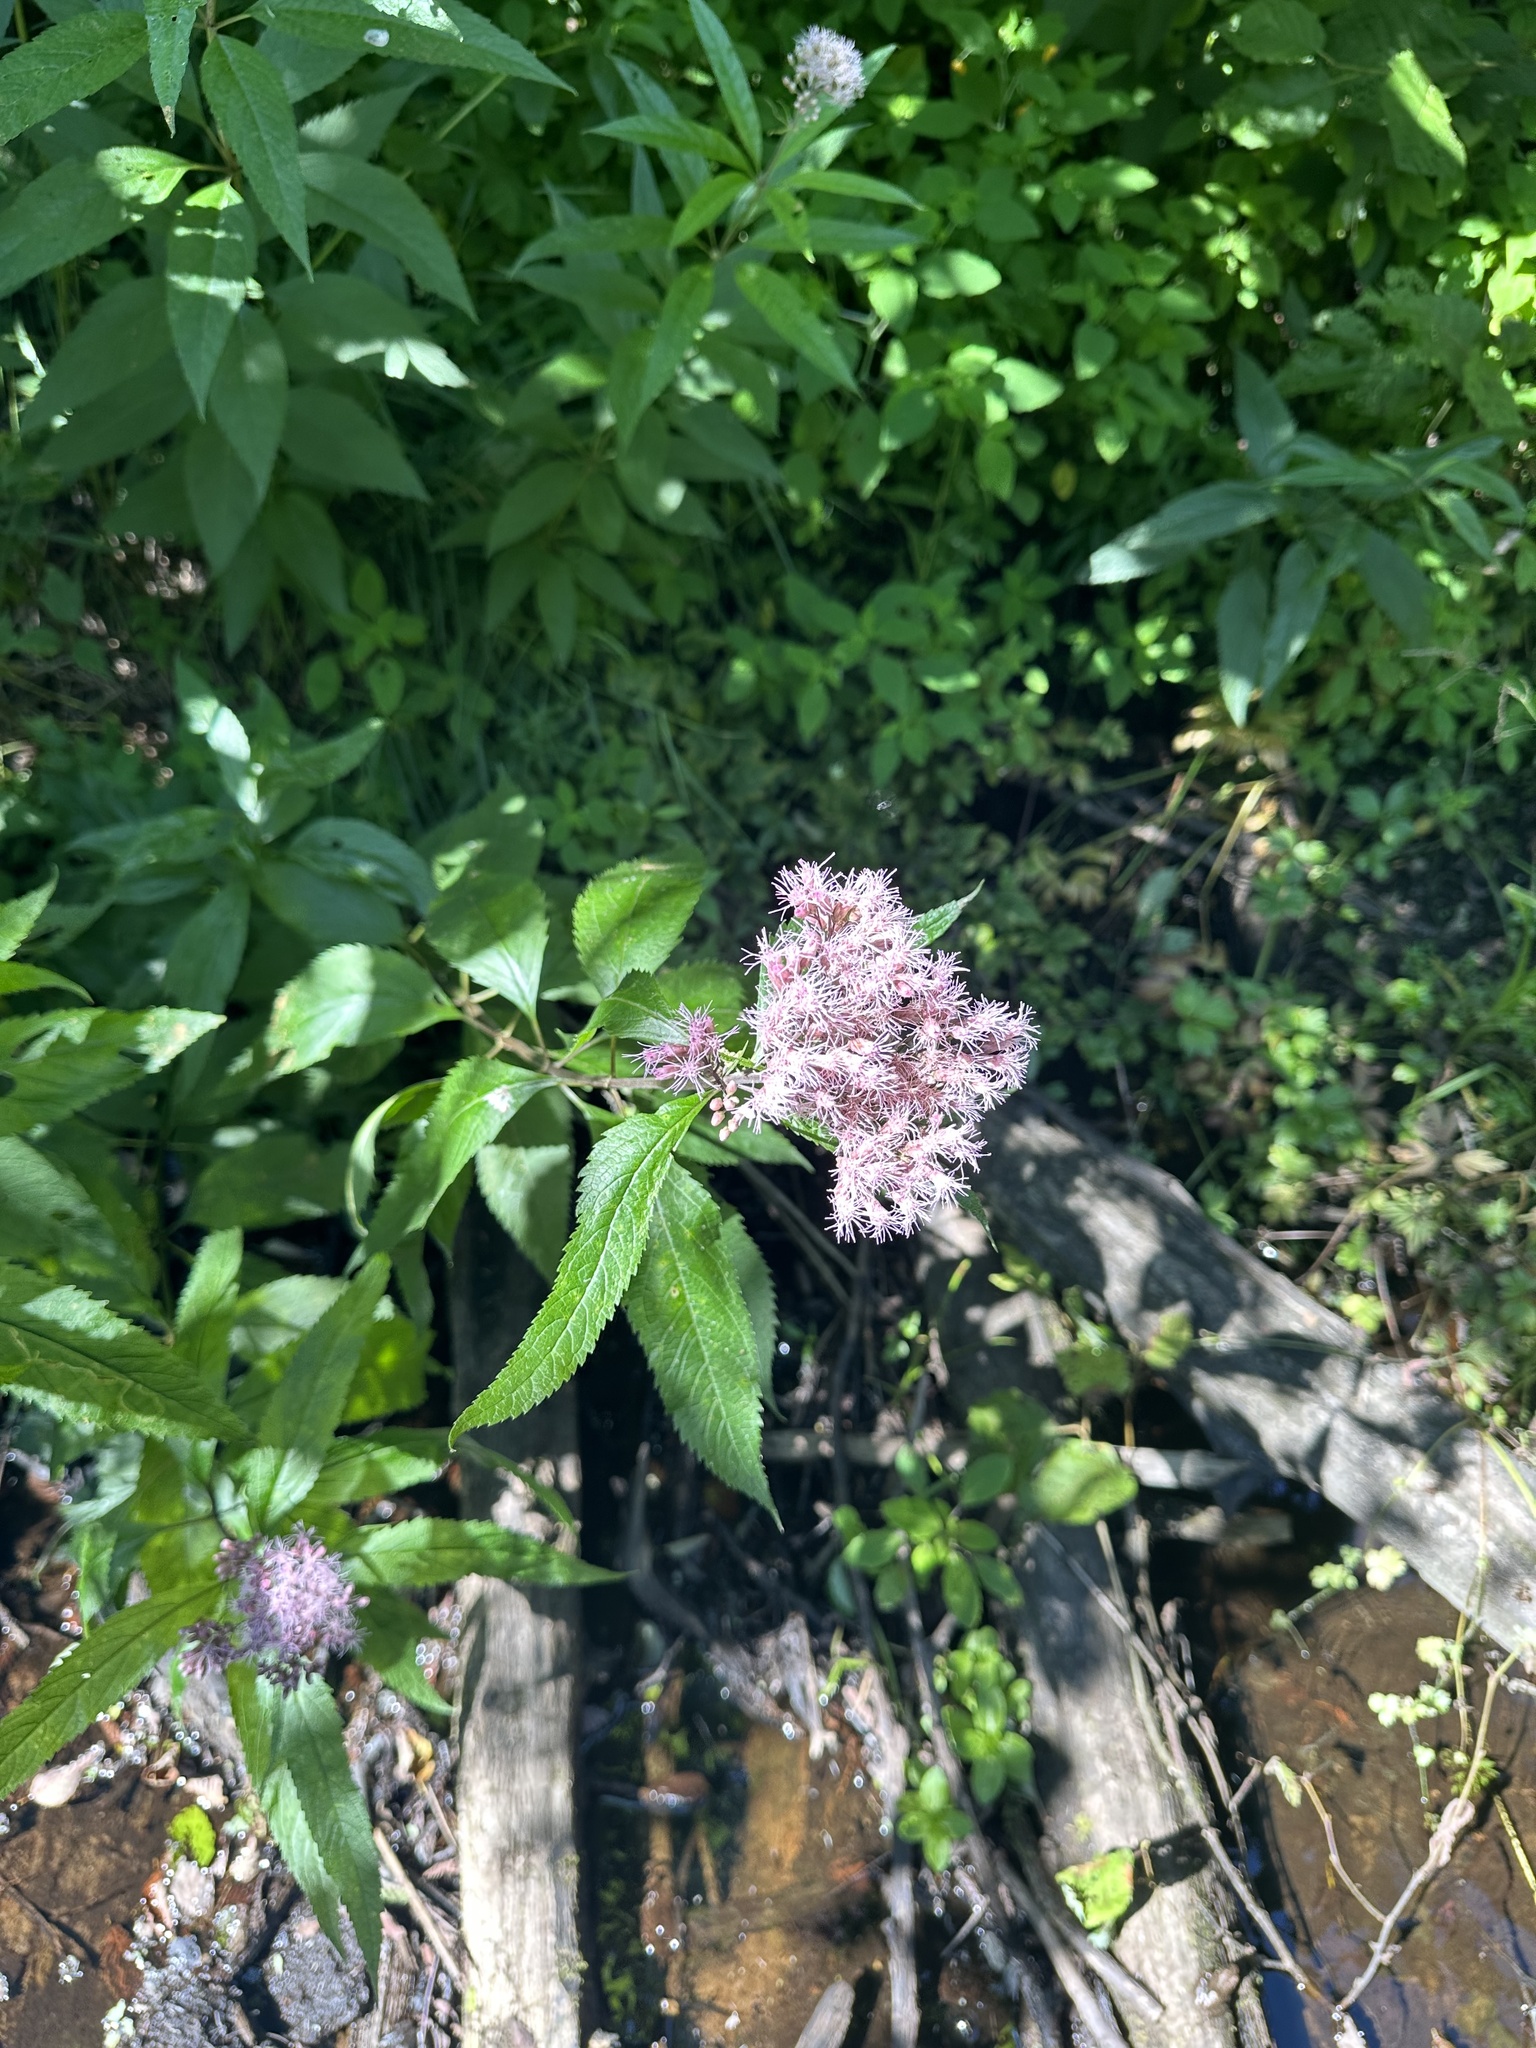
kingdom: Plantae
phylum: Tracheophyta
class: Magnoliopsida
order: Asterales
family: Asteraceae
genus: Eutrochium
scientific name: Eutrochium maculatum
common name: Spotted joe pye weed
